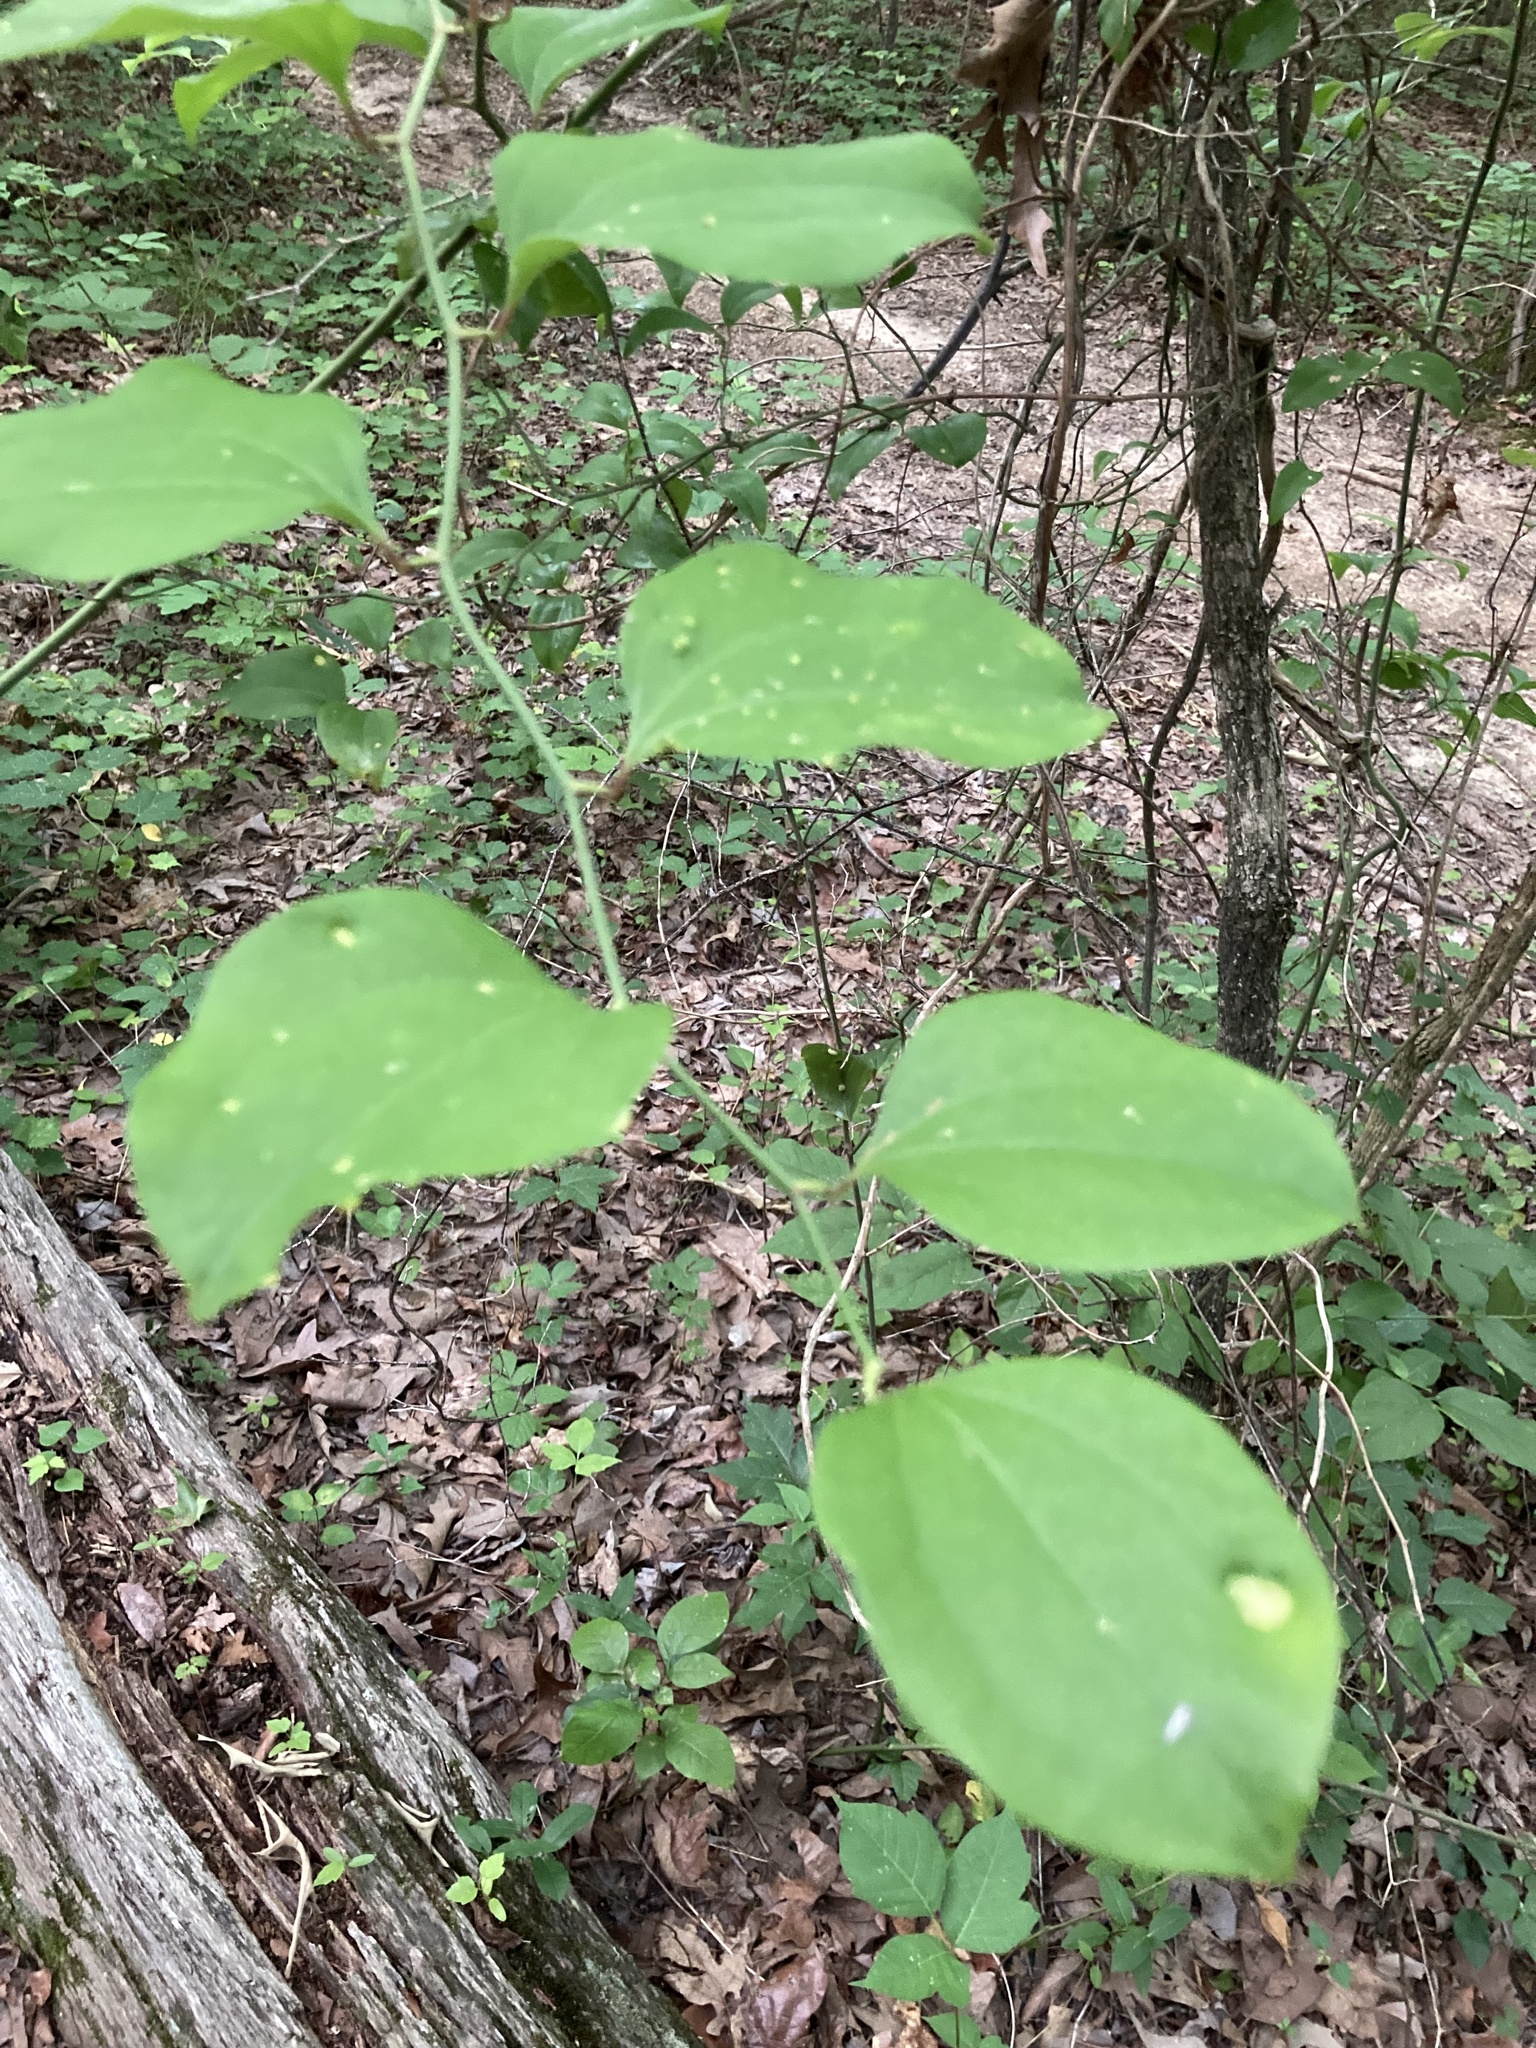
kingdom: Plantae
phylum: Tracheophyta
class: Liliopsida
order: Liliales
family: Smilacaceae
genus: Smilax
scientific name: Smilax rotundifolia
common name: Bullbriar
